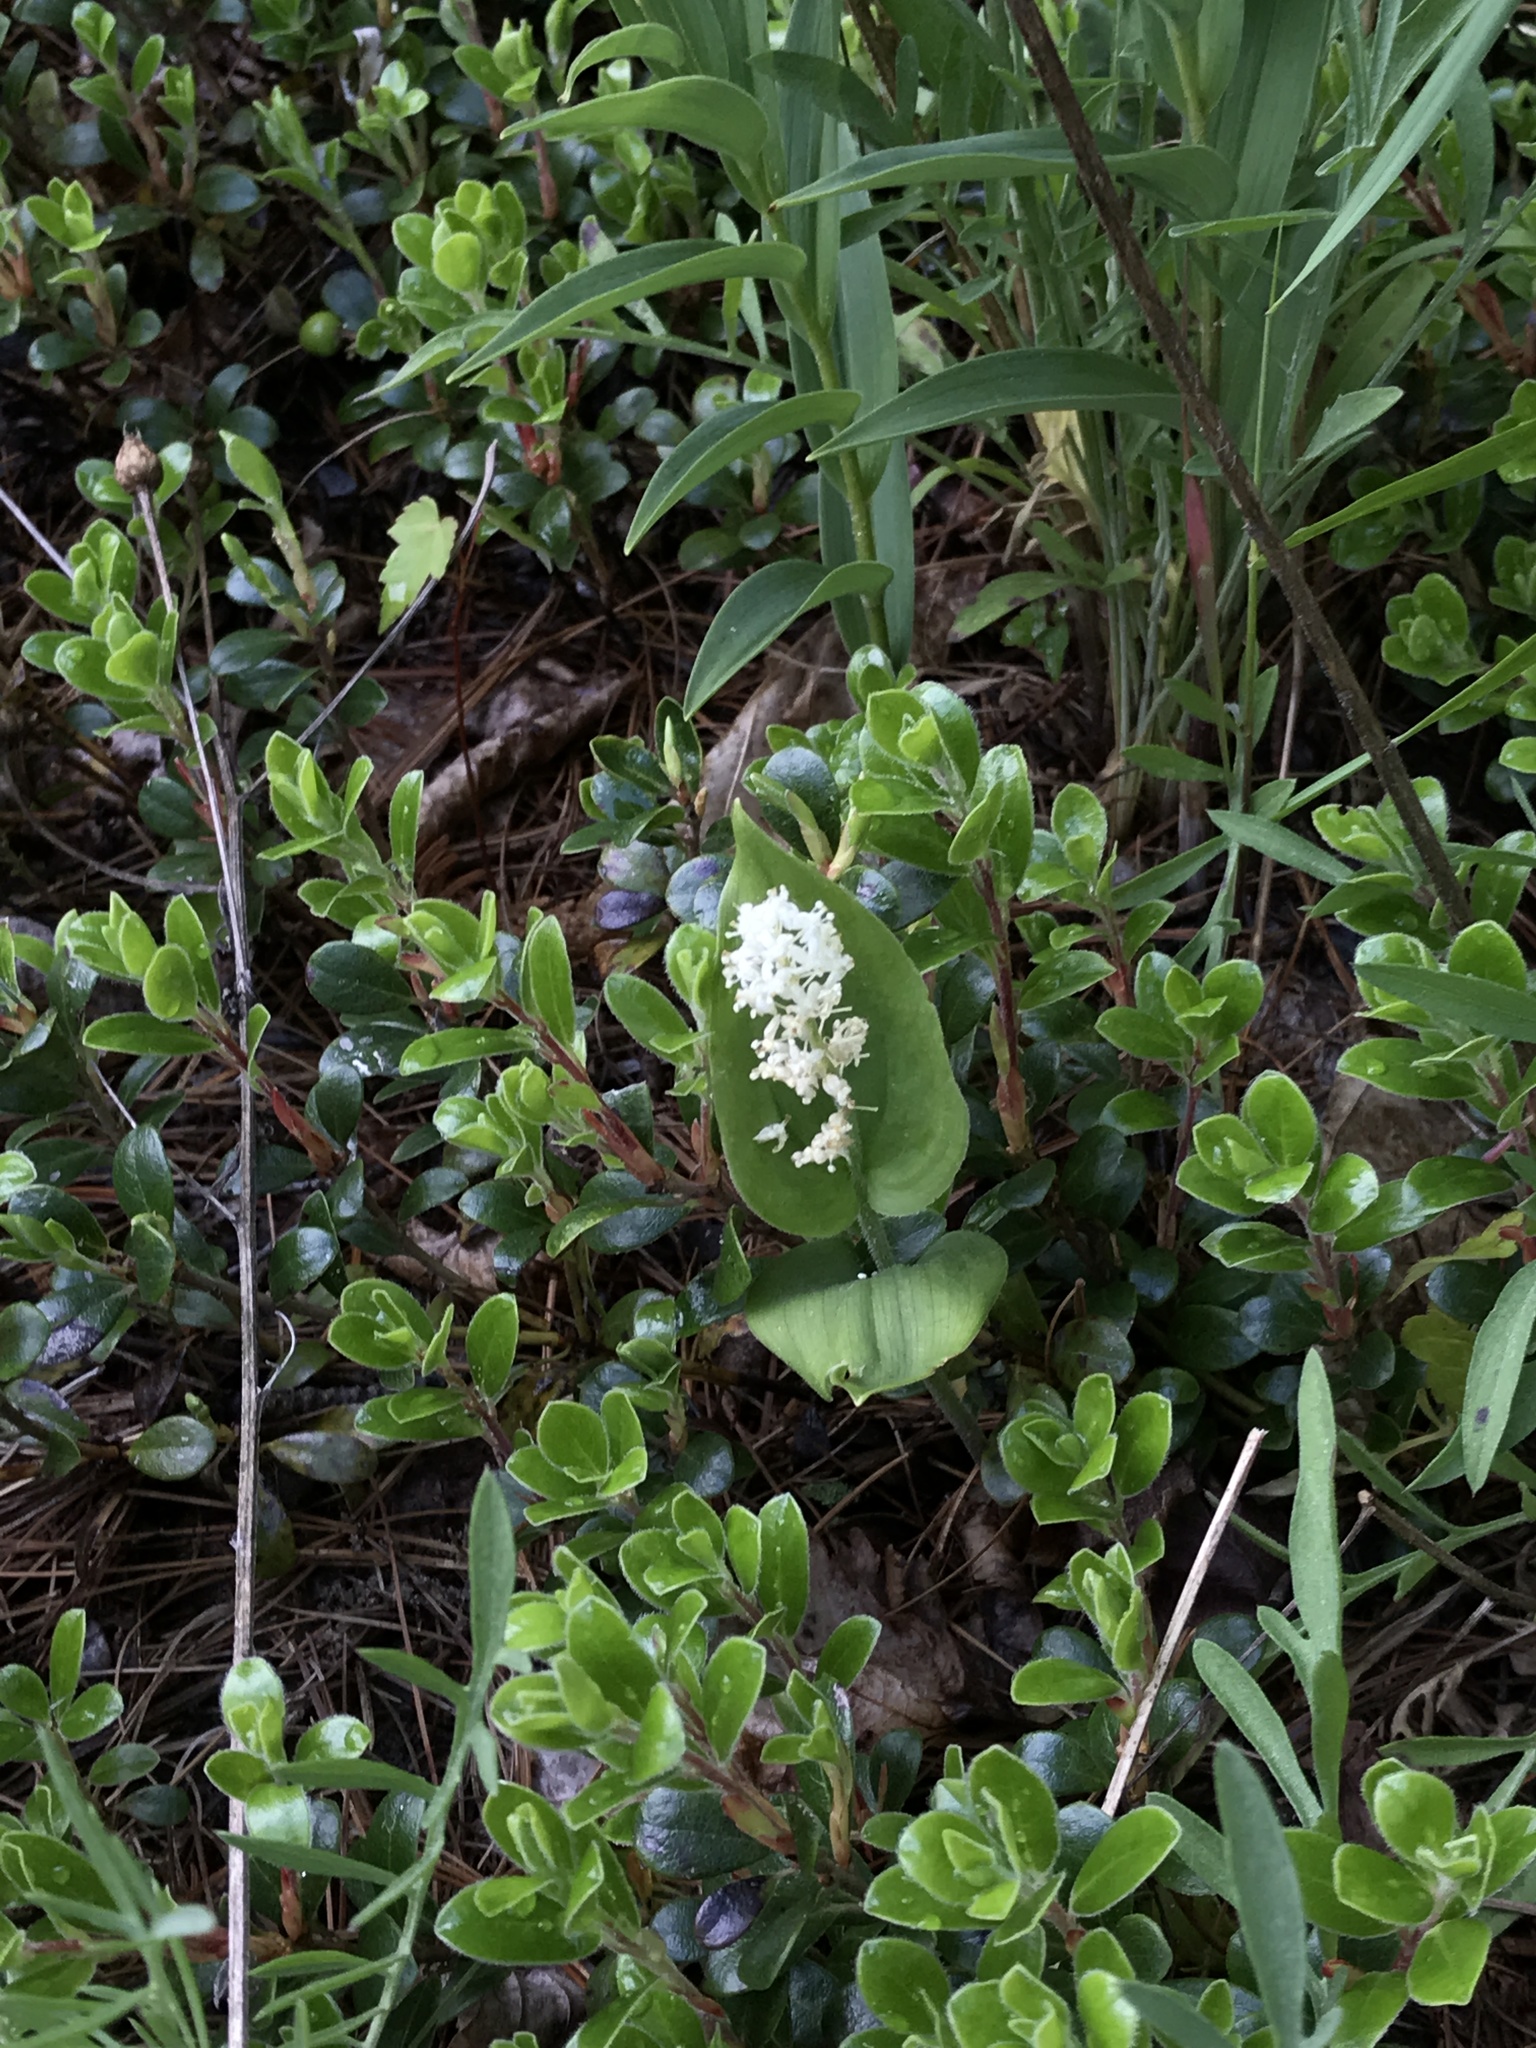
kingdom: Plantae
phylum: Tracheophyta
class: Liliopsida
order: Asparagales
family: Asparagaceae
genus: Maianthemum
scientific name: Maianthemum canadense
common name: False lily-of-the-valley
